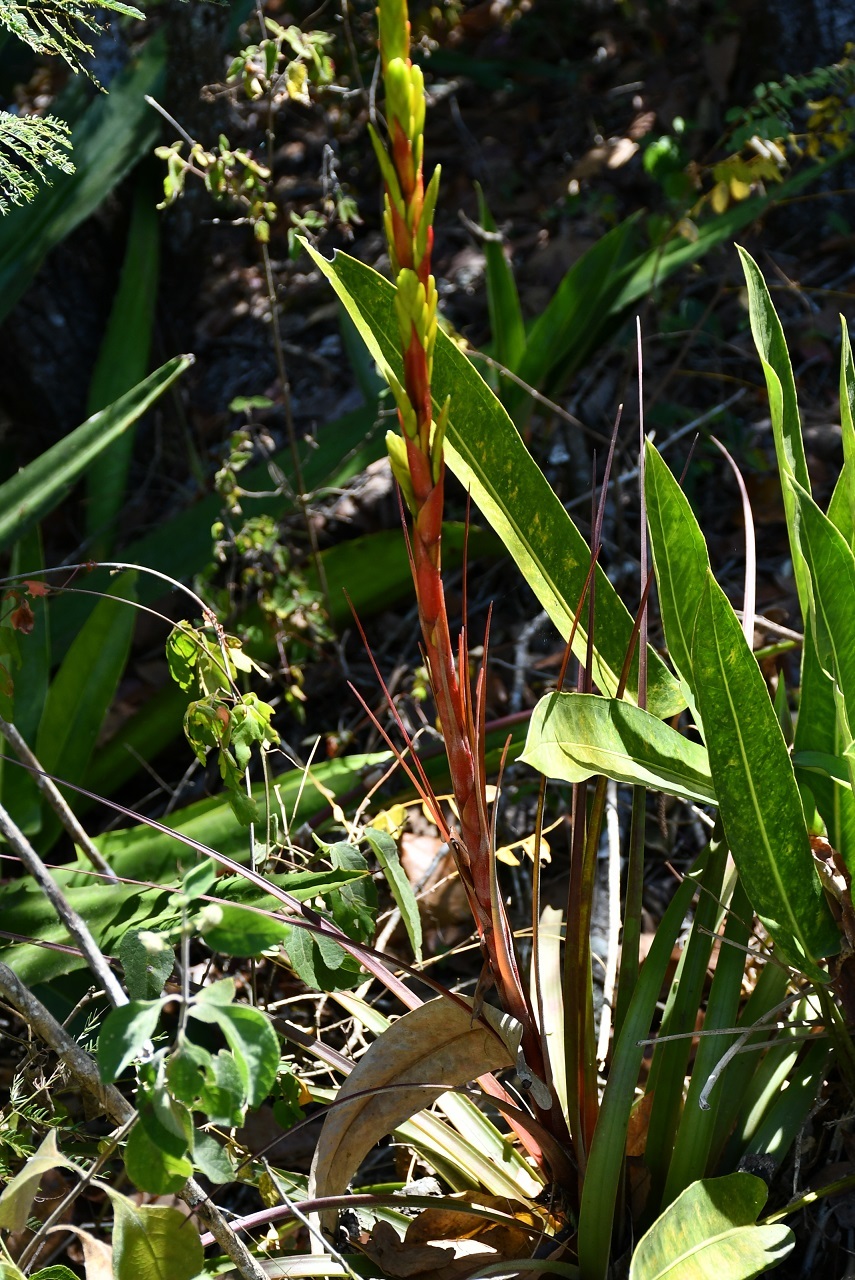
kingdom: Plantae
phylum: Tracheophyta
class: Liliopsida
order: Poales
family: Bromeliaceae
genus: Tillandsia
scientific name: Tillandsia rodrigueziana
